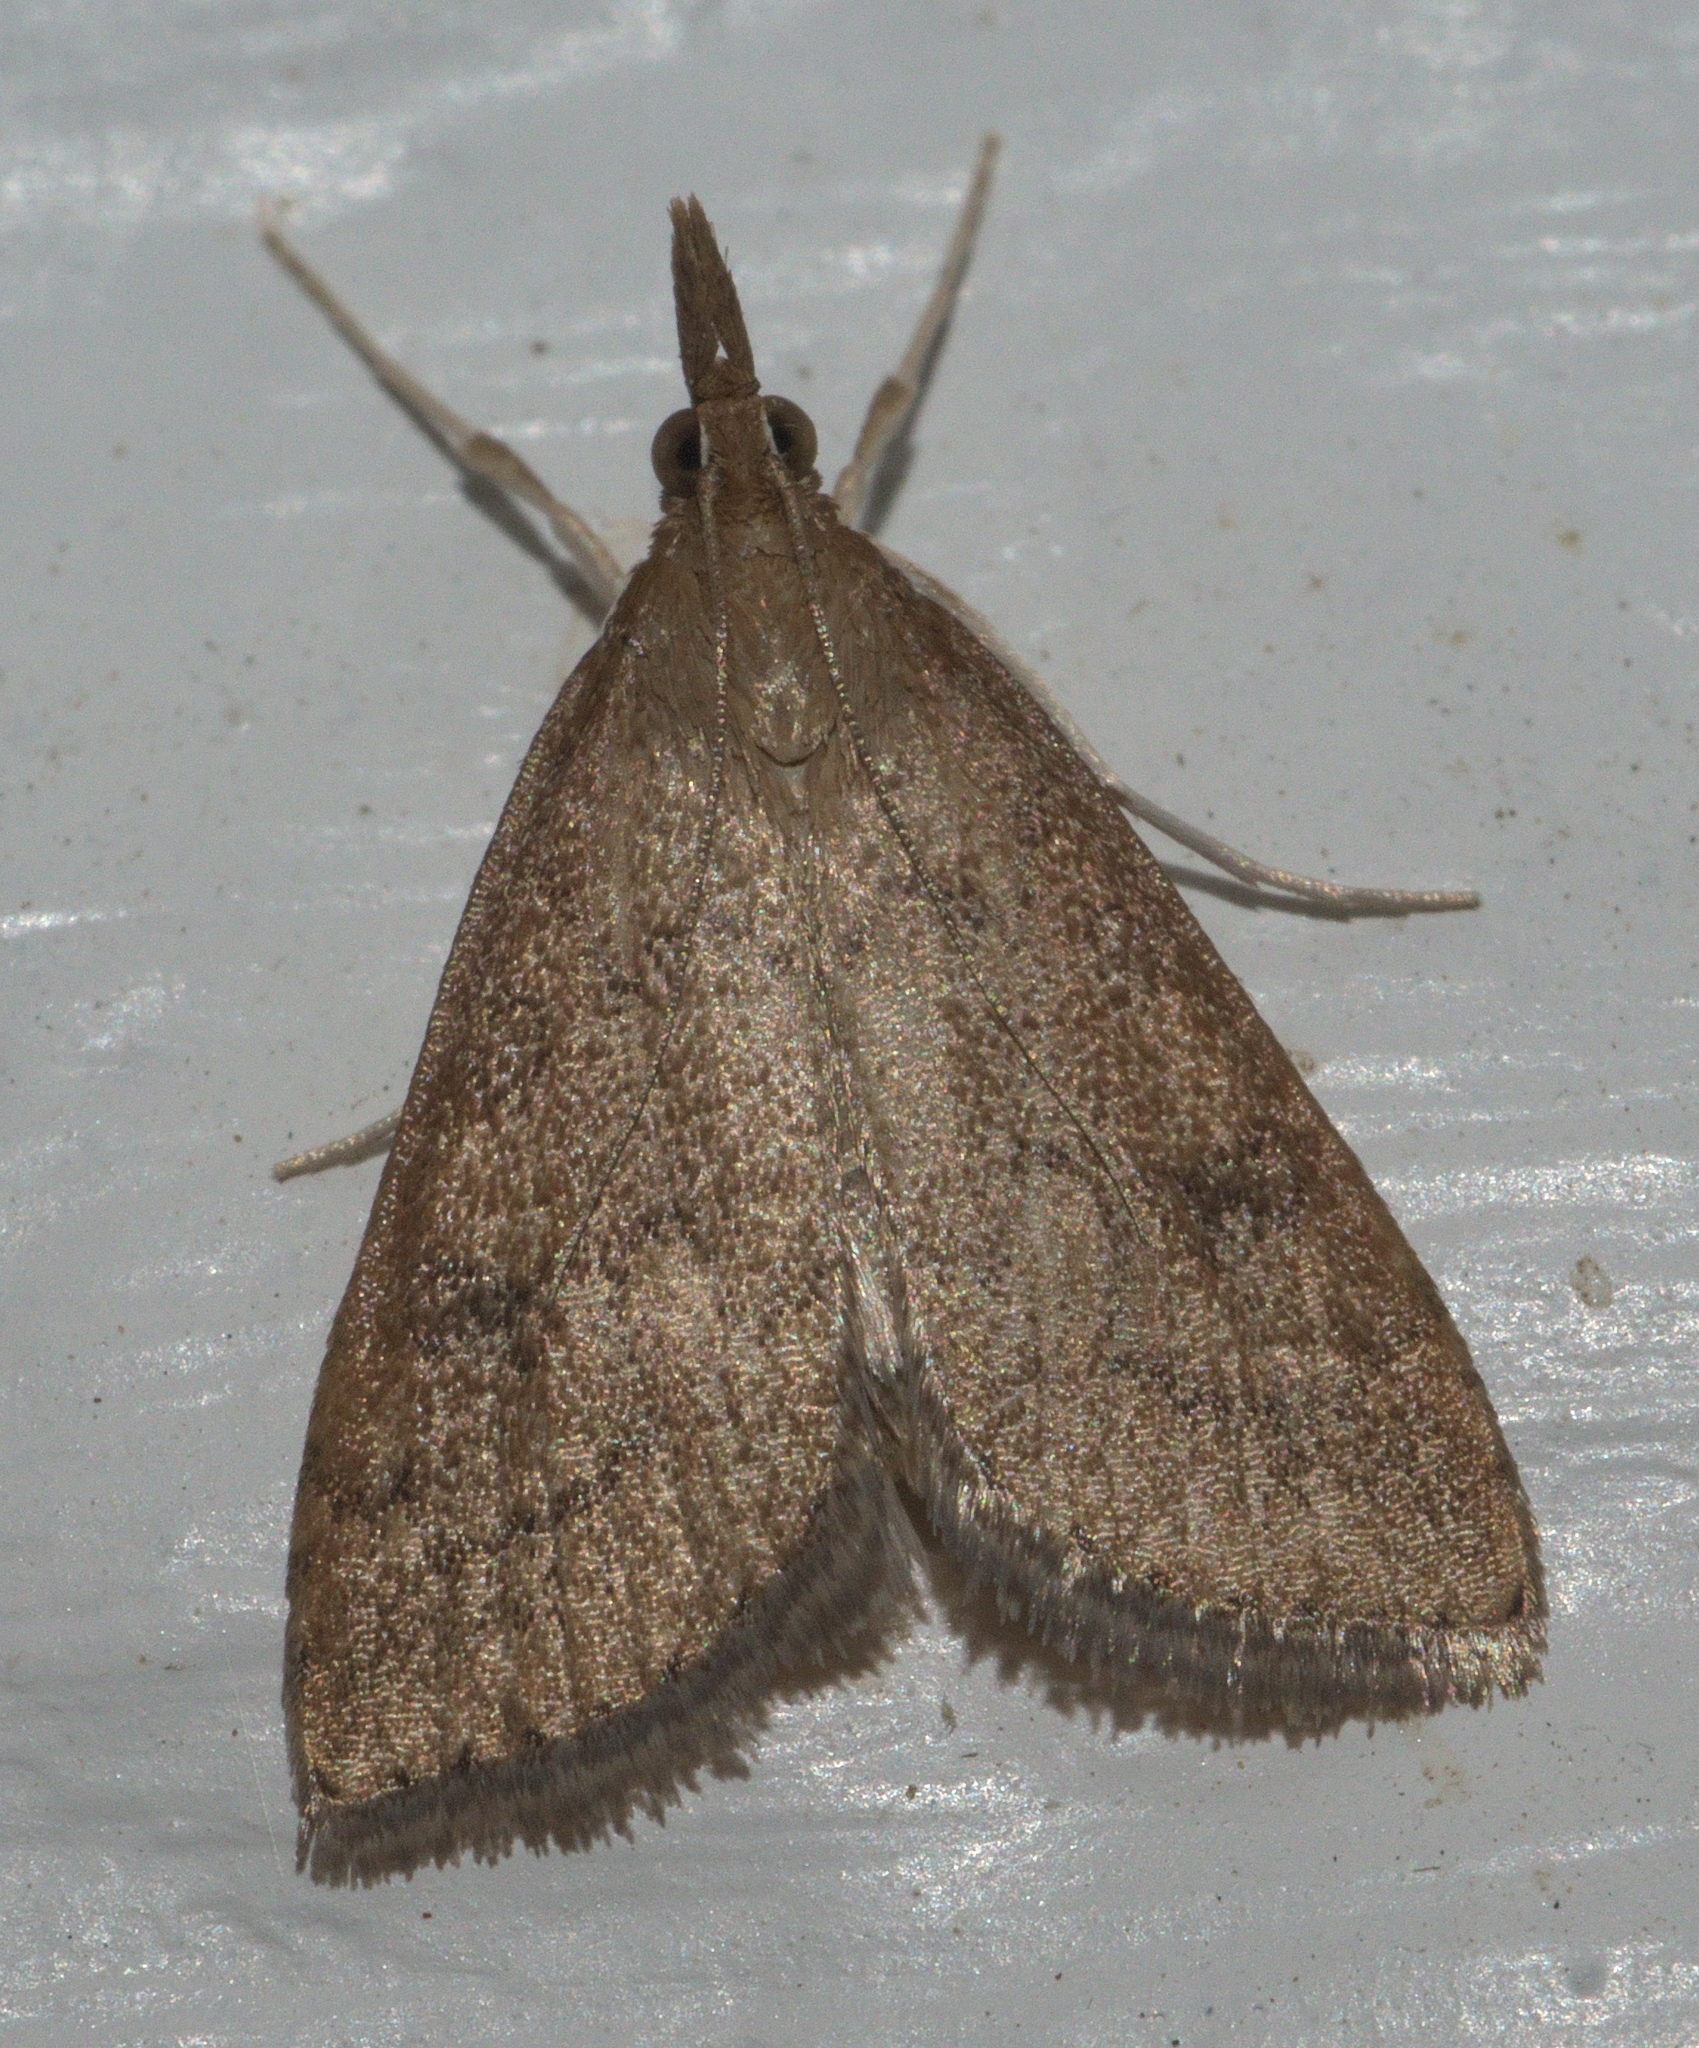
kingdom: Animalia
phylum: Arthropoda
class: Insecta
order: Lepidoptera
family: Crambidae
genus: Udea
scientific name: Udea rubigalis
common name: Celery leaftier moth
